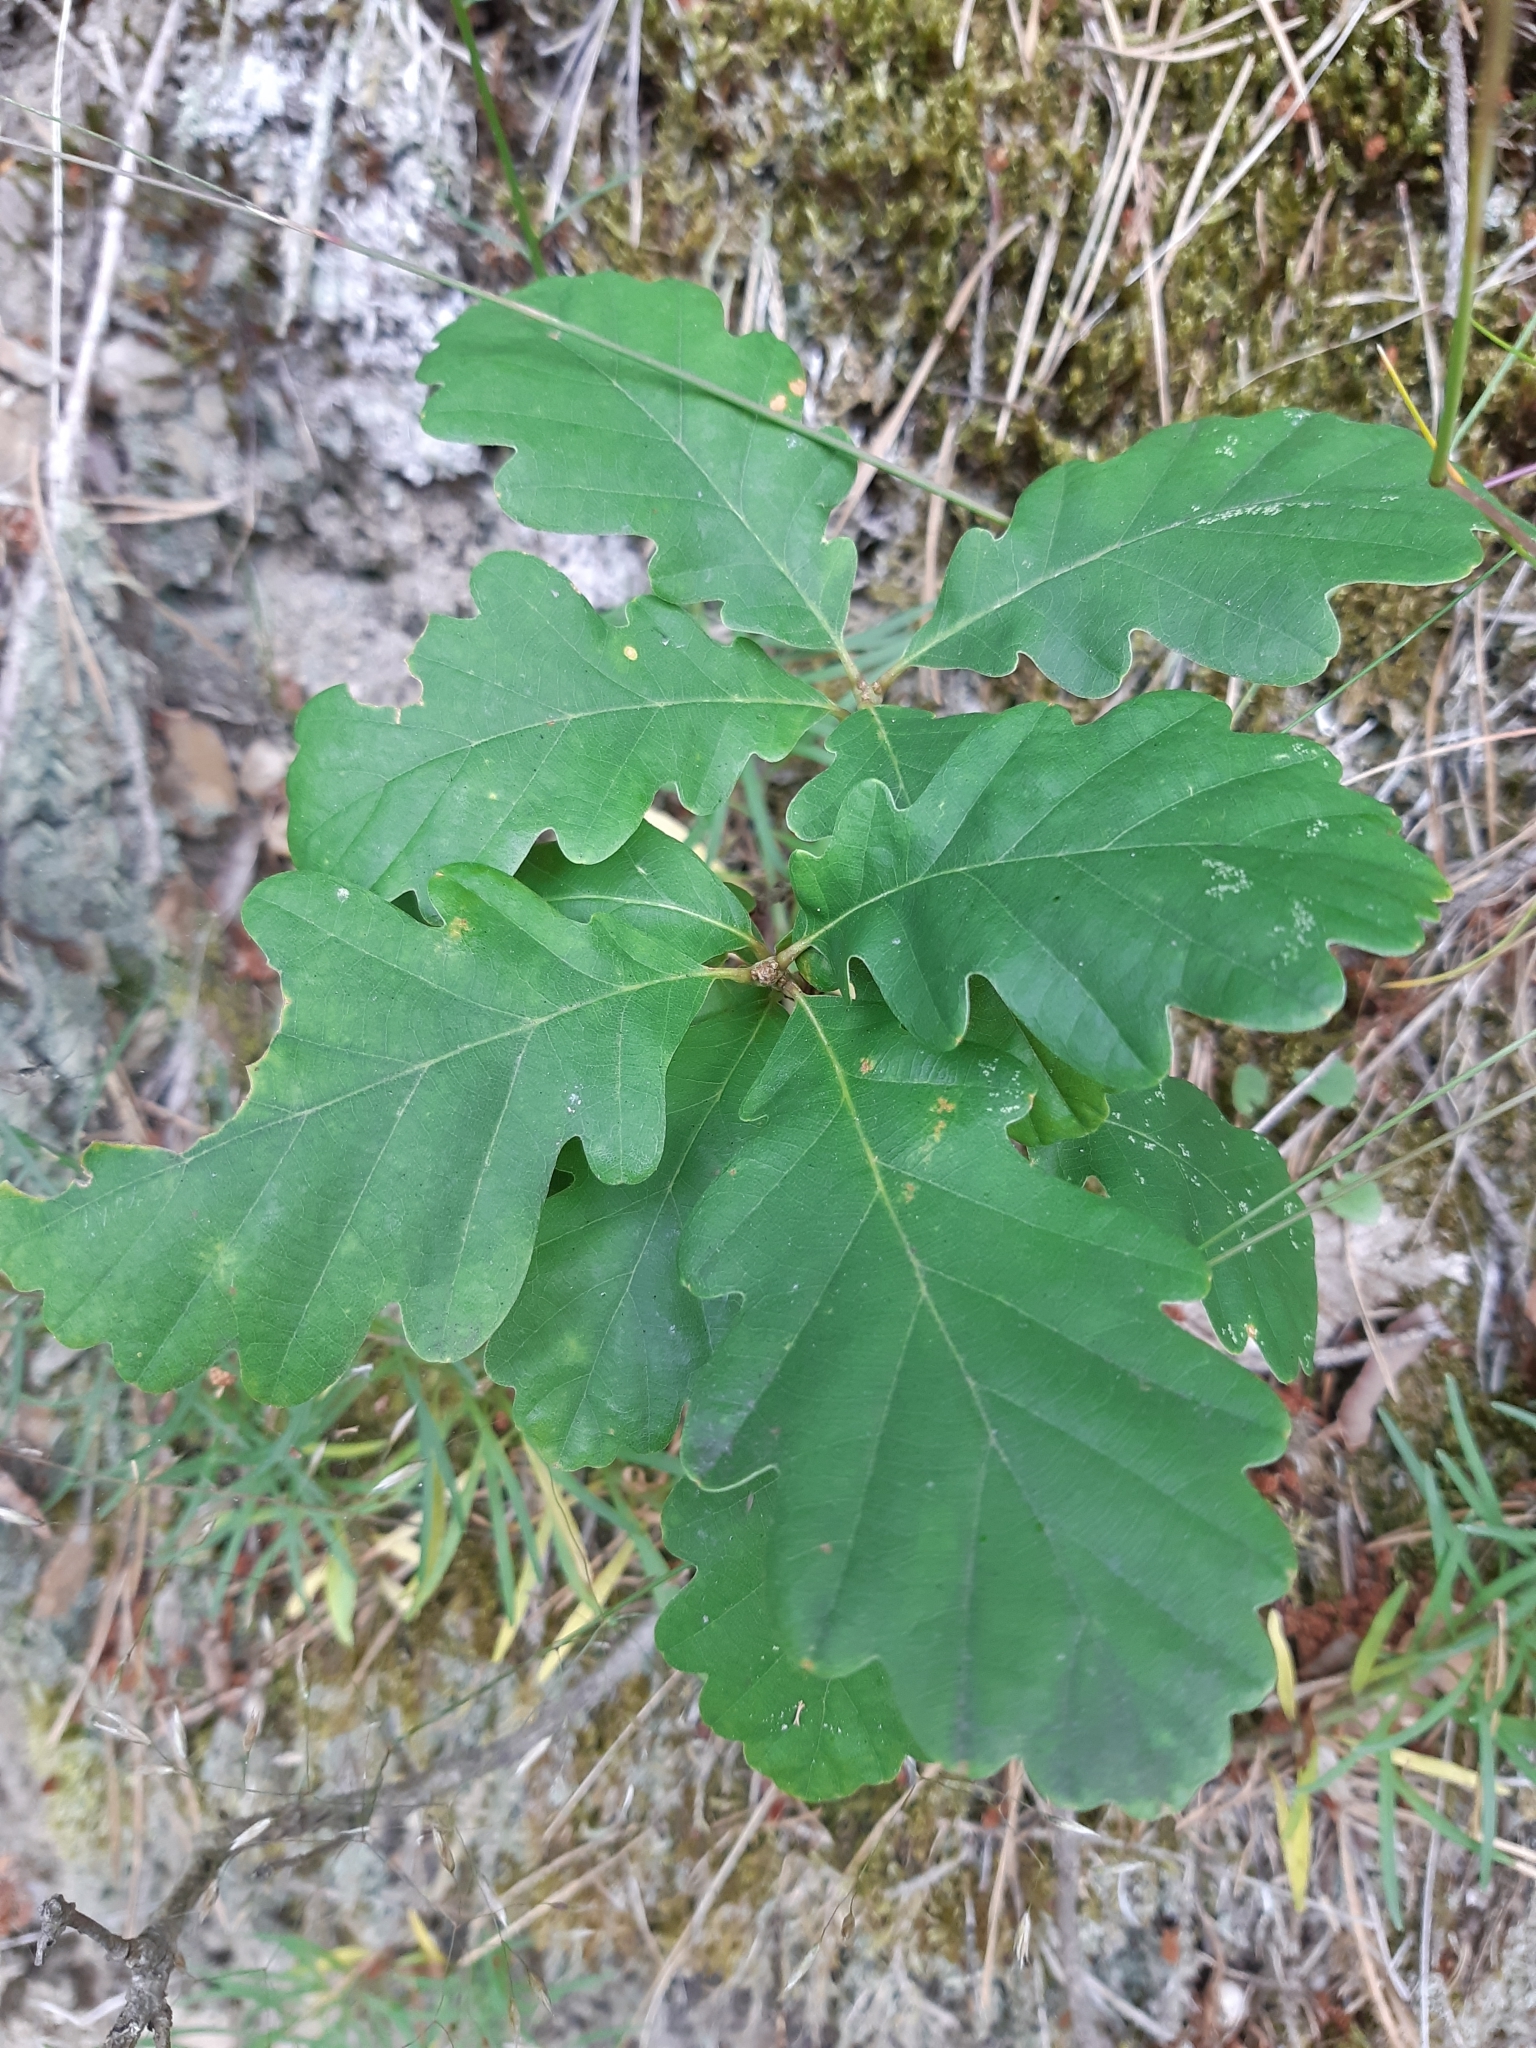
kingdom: Plantae
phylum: Tracheophyta
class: Magnoliopsida
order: Fagales
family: Fagaceae
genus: Quercus
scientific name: Quercus petraea
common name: Sessile oak
